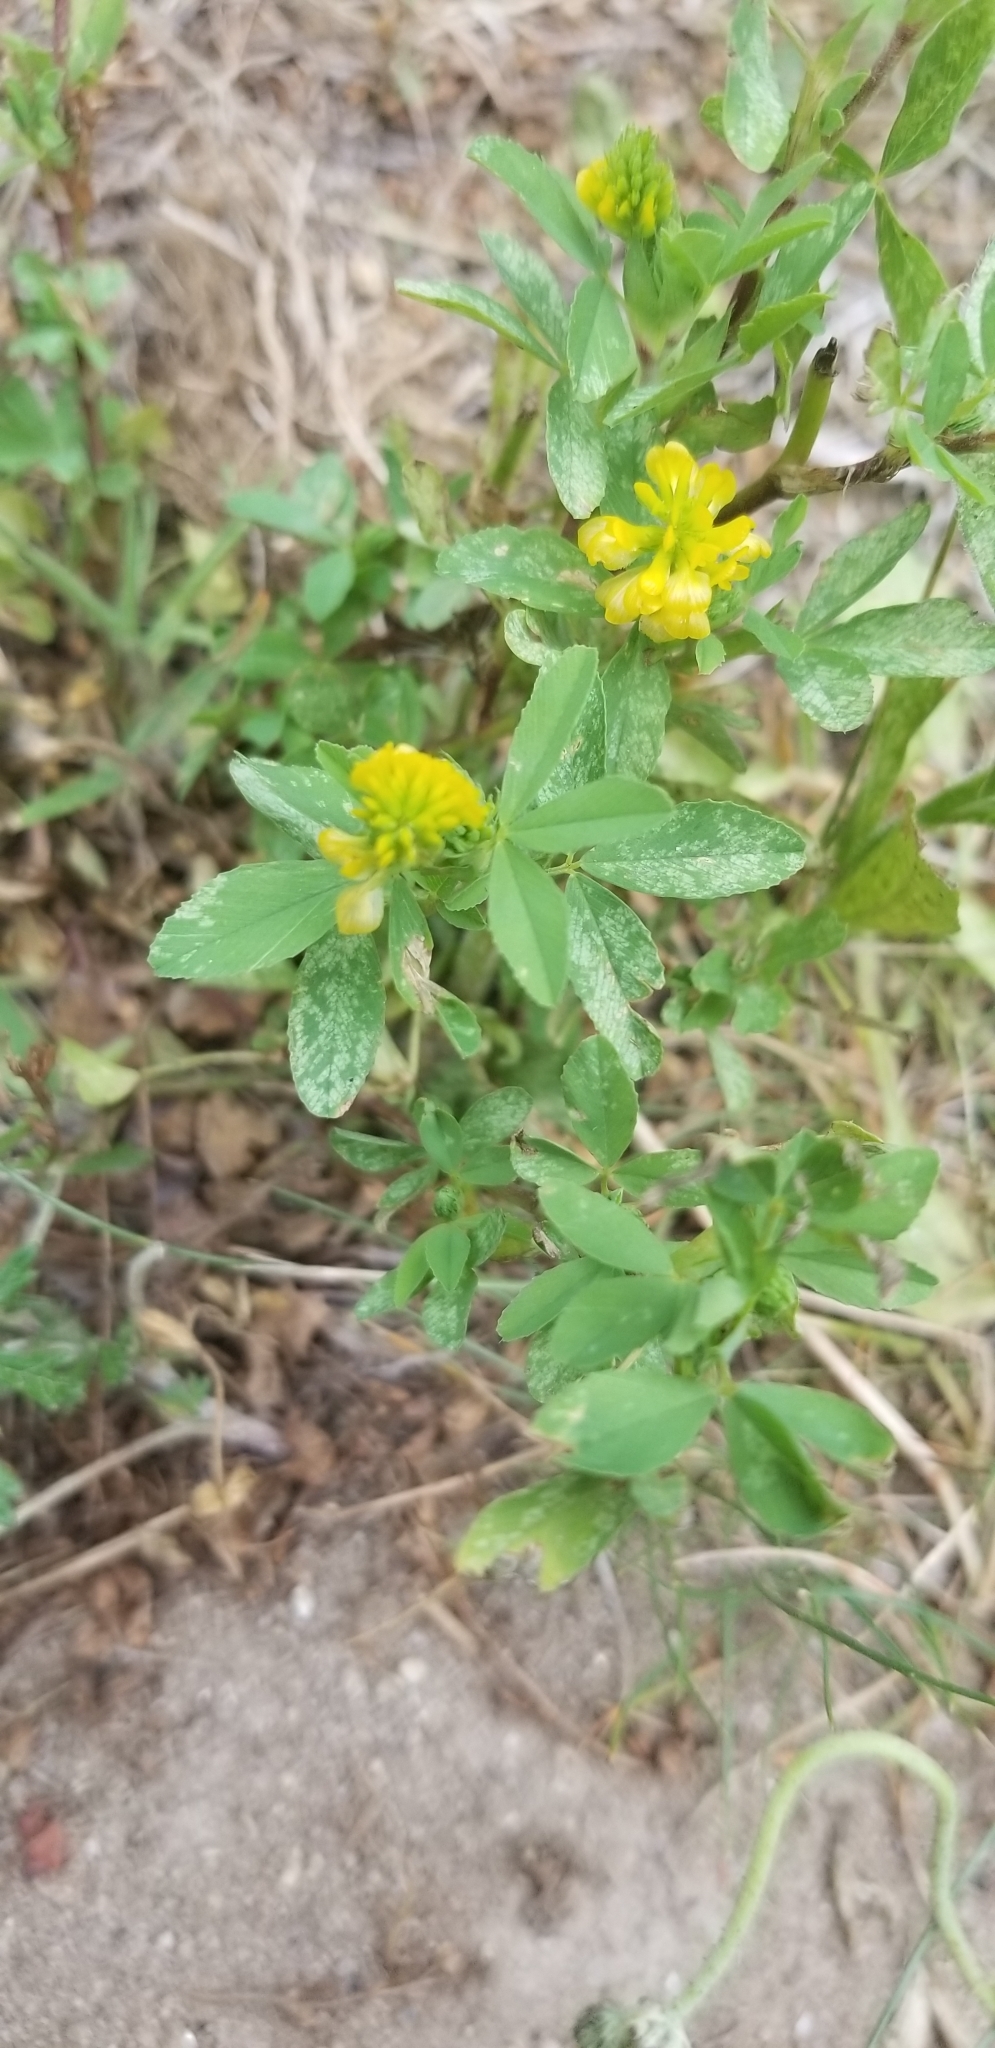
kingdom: Plantae
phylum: Tracheophyta
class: Magnoliopsida
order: Fabales
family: Fabaceae
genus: Trifolium
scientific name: Trifolium aureum
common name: Golden clover
